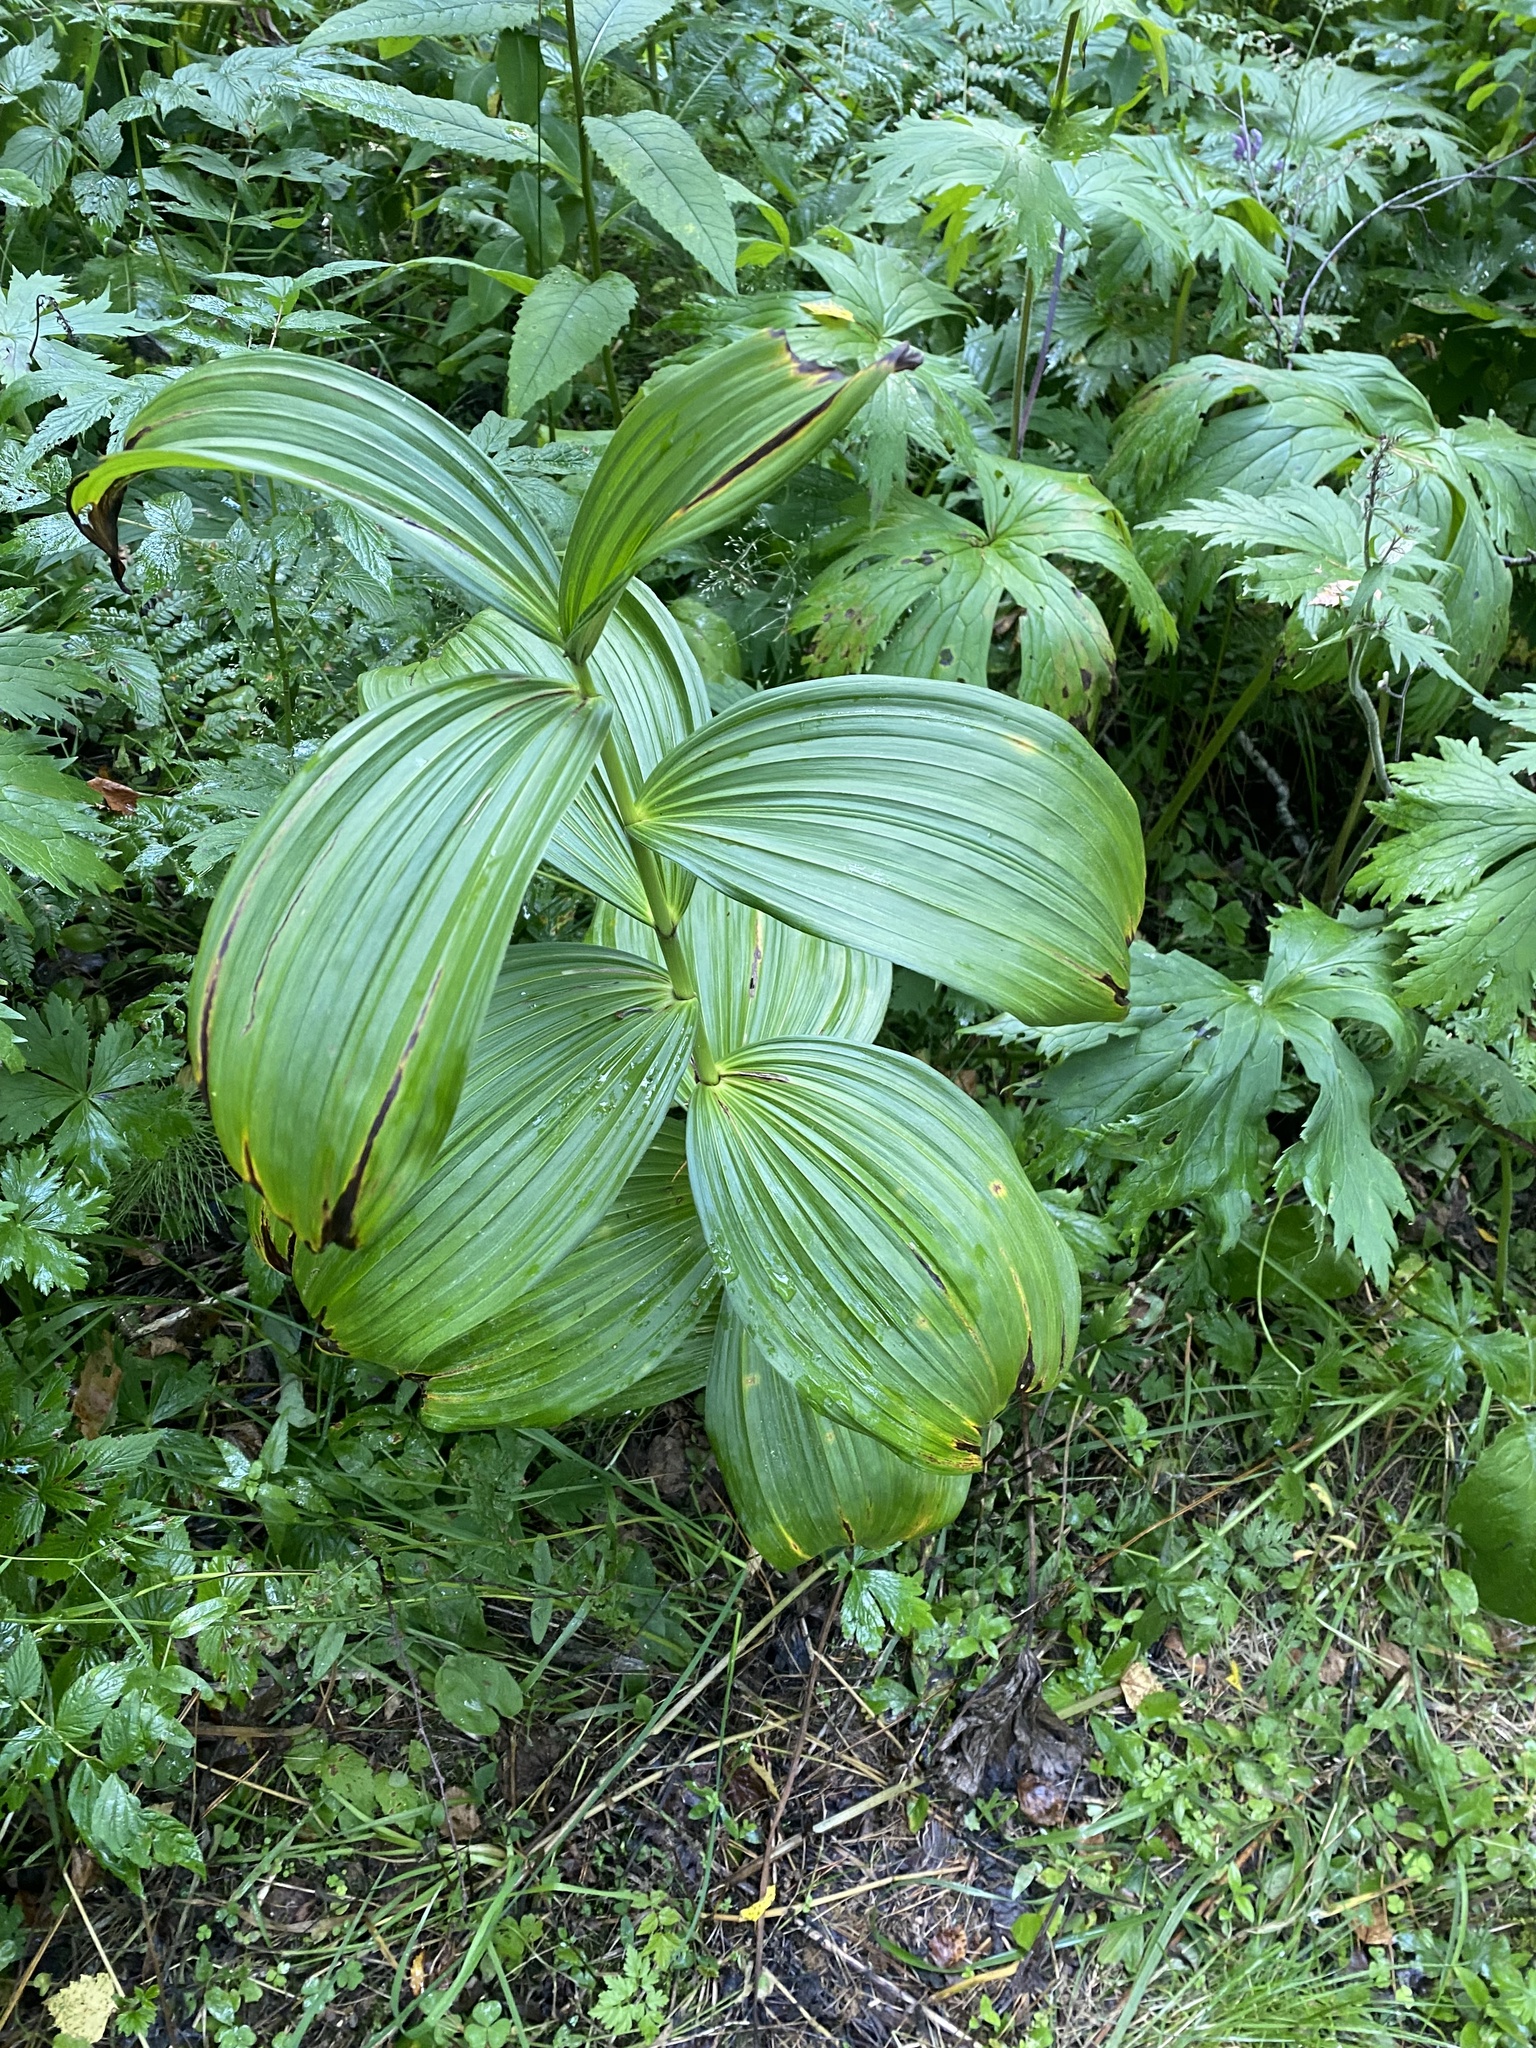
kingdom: Plantae
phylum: Tracheophyta
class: Liliopsida
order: Liliales
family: Melanthiaceae
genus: Veratrum
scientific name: Veratrum lobelianum
